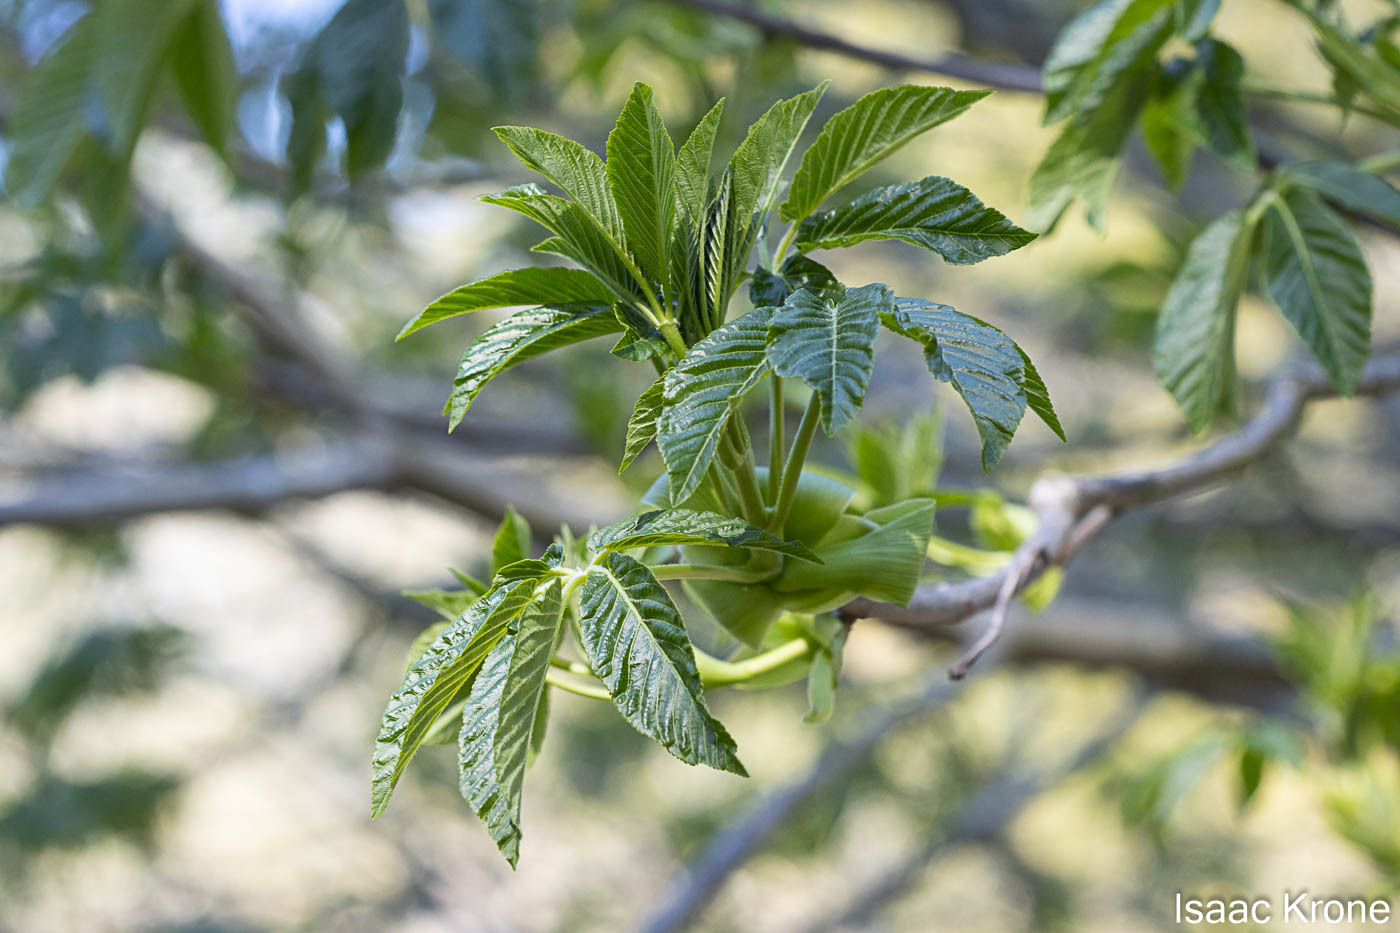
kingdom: Plantae
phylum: Tracheophyta
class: Magnoliopsida
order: Sapindales
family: Sapindaceae
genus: Aesculus
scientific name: Aesculus californica
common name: California buckeye
